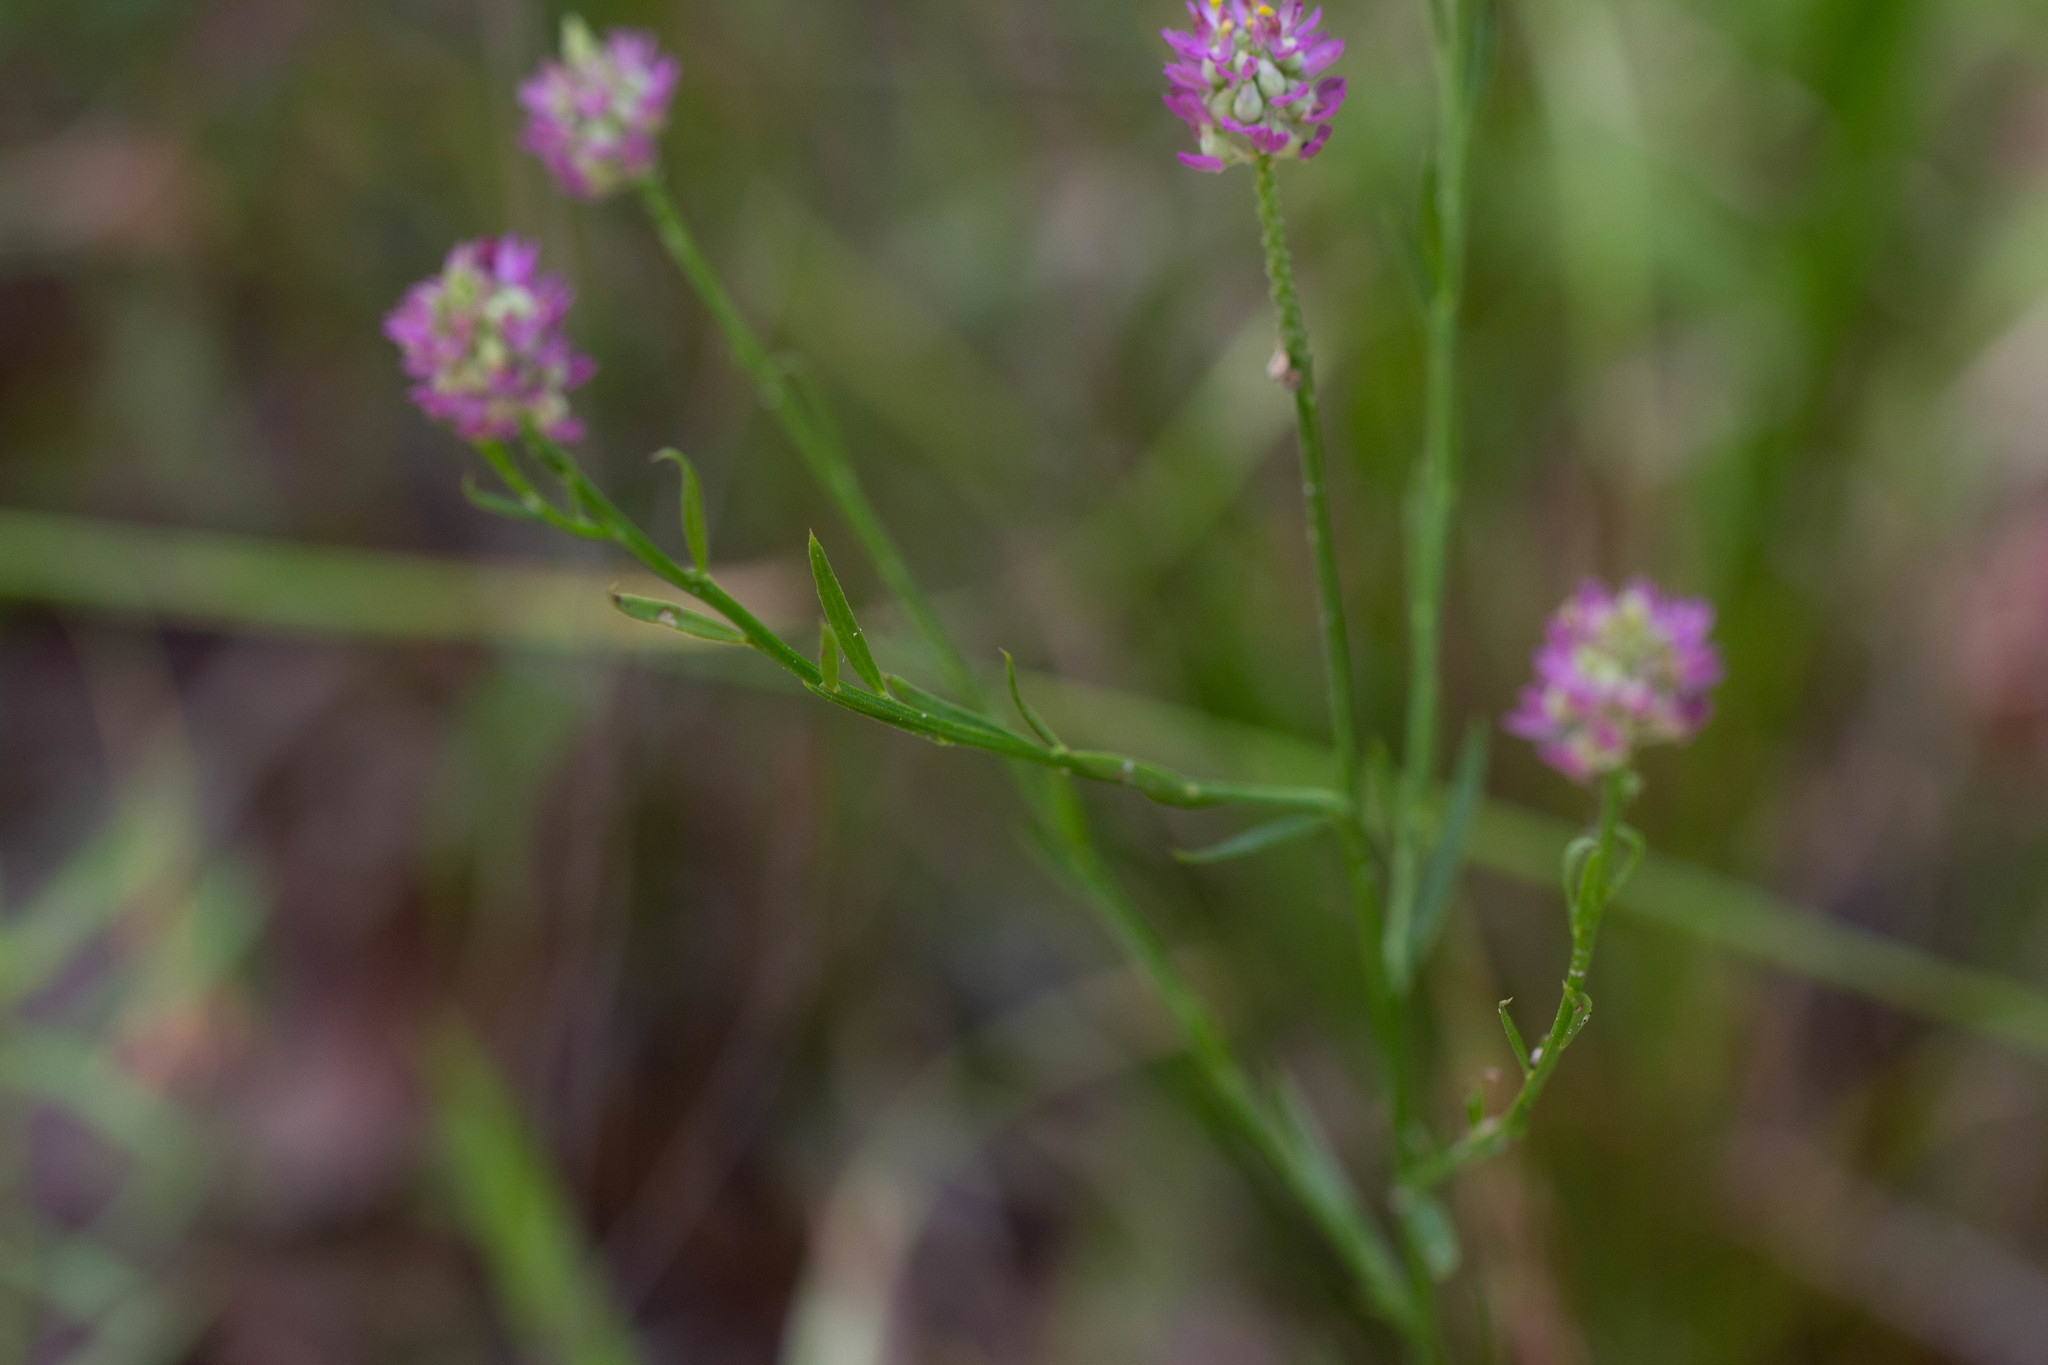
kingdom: Plantae
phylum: Tracheophyta
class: Magnoliopsida
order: Fabales
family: Polygalaceae
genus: Polygala
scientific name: Polygala mariana
